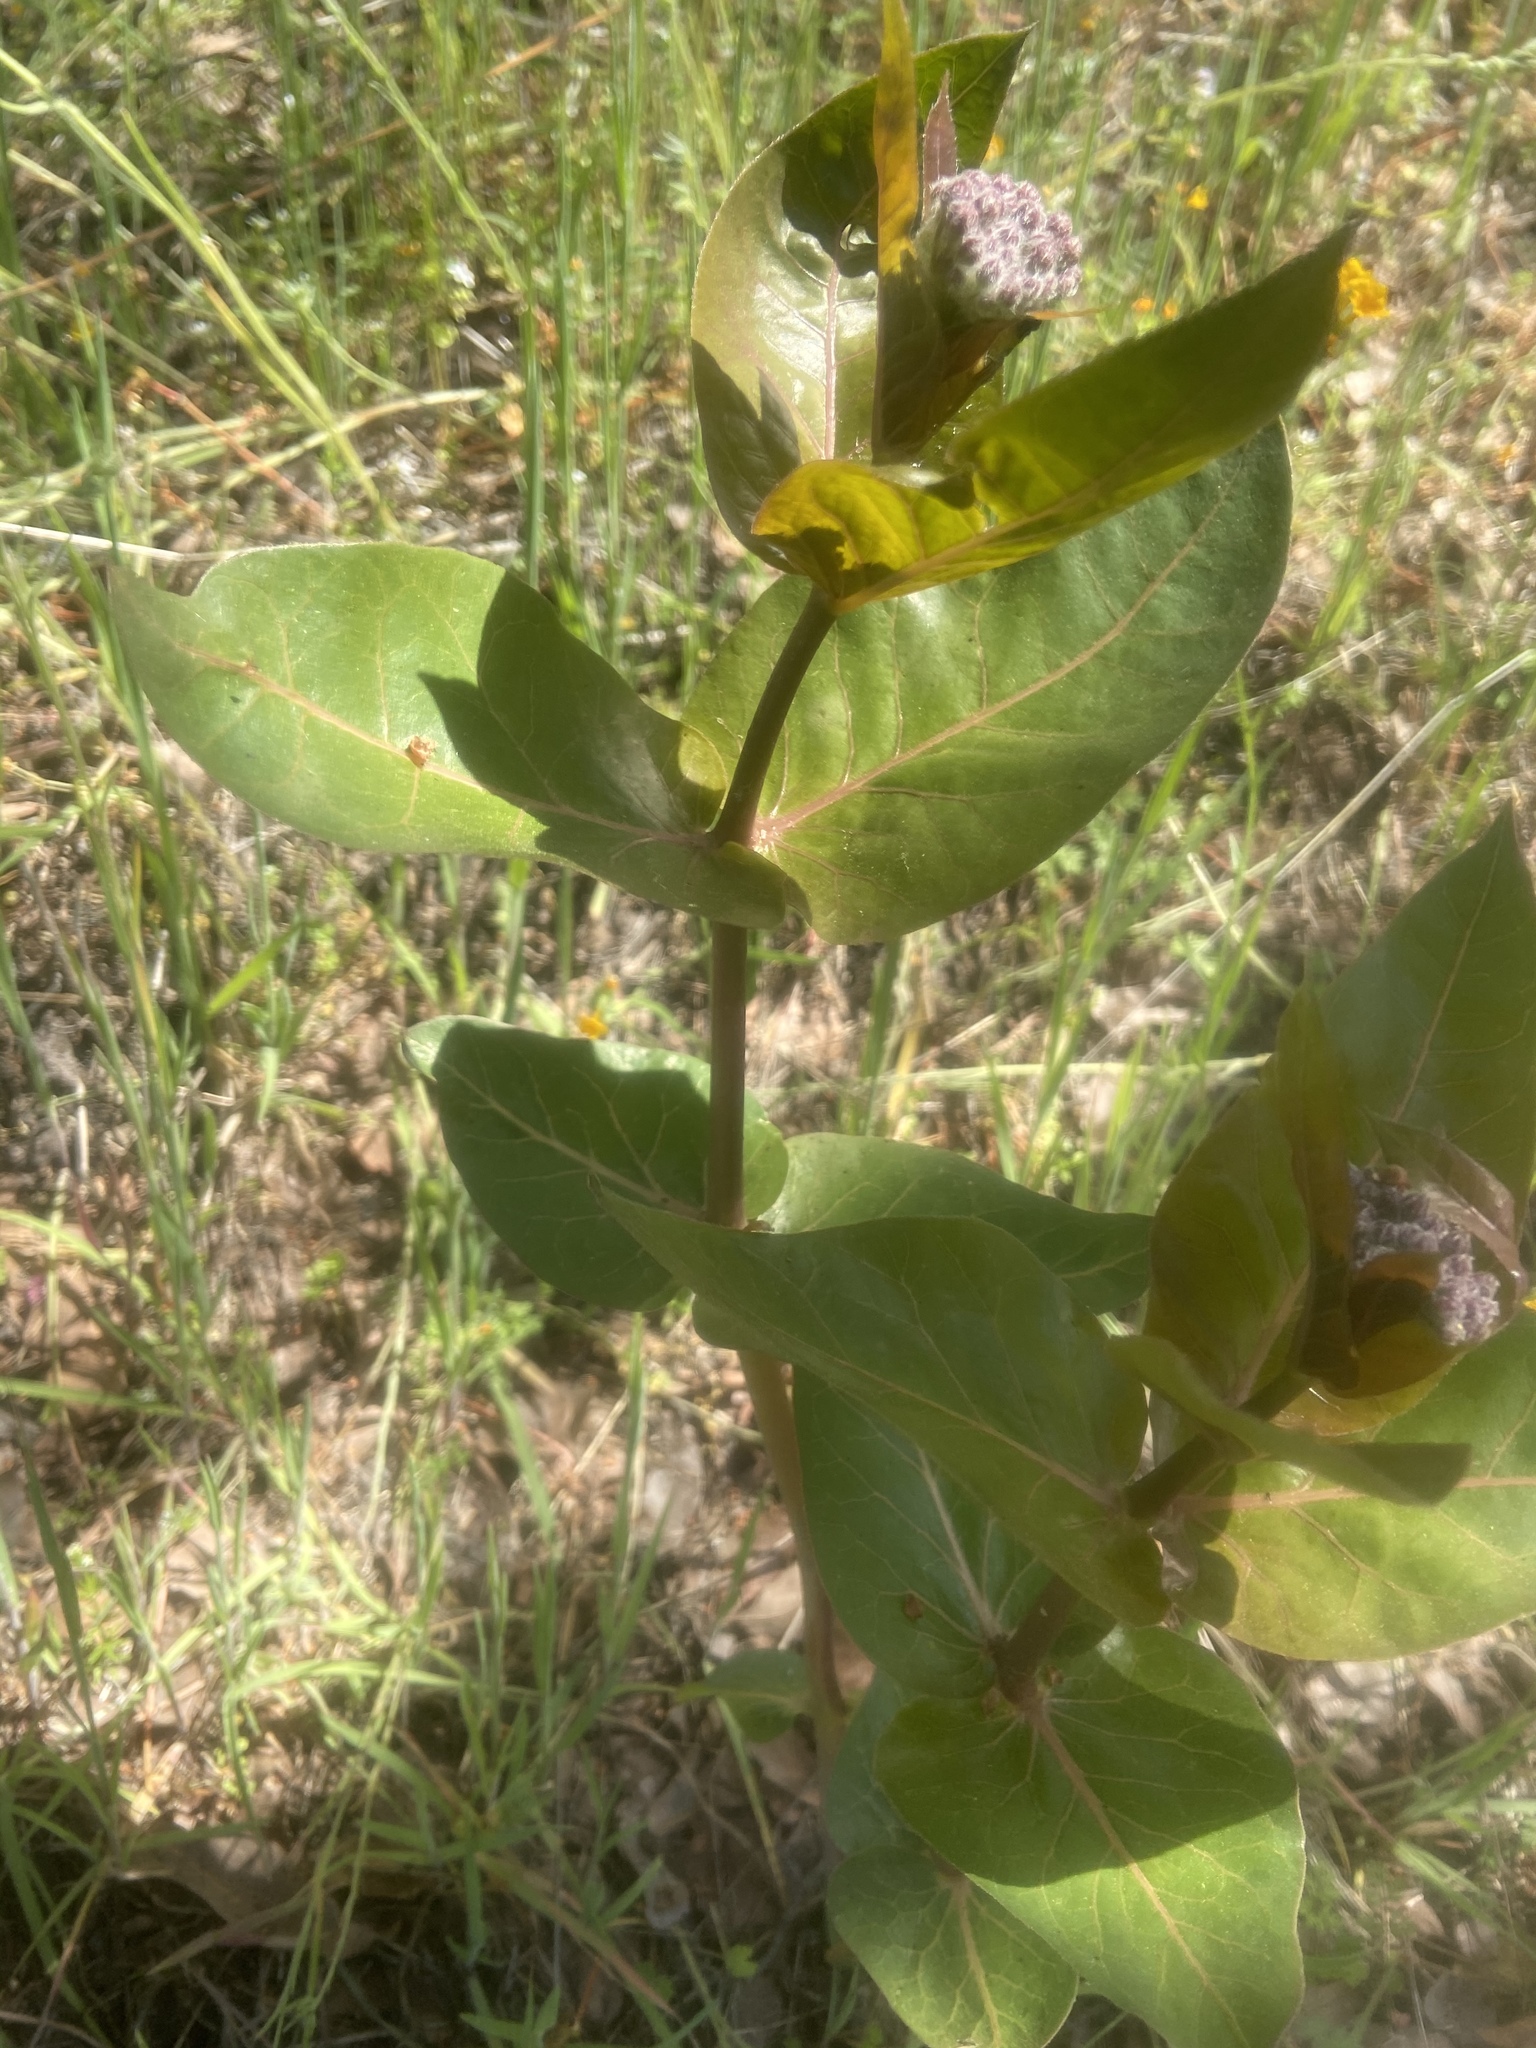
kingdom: Plantae
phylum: Tracheophyta
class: Magnoliopsida
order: Gentianales
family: Apocynaceae
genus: Asclepias
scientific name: Asclepias cordifolia
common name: Purple milkweed
